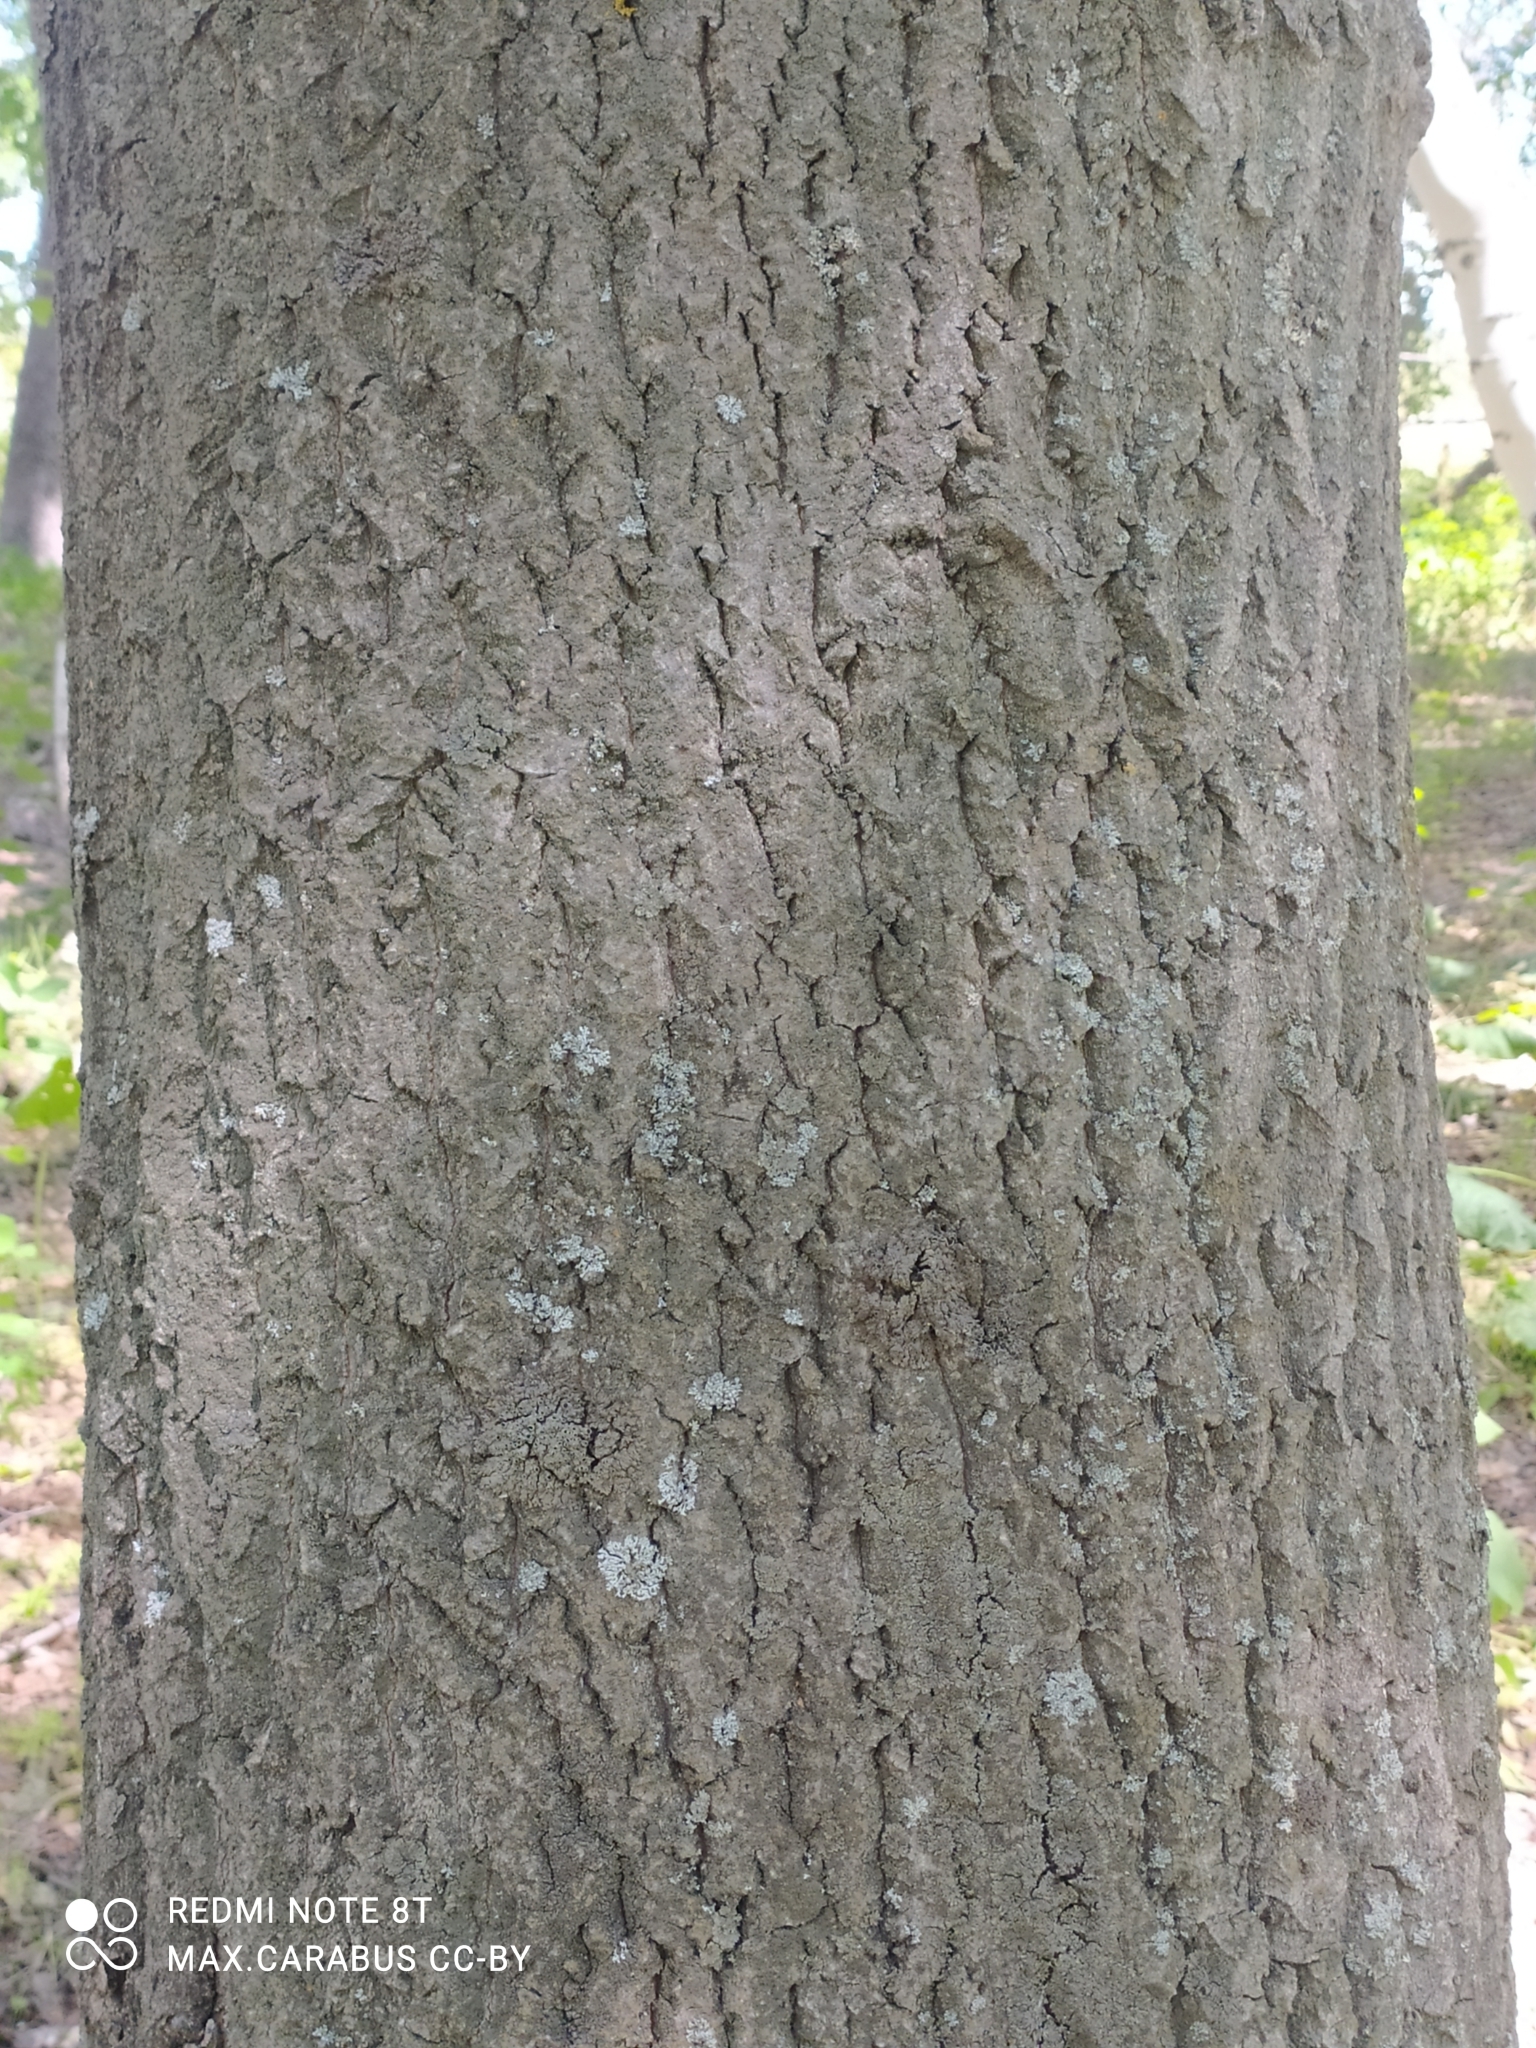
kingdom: Plantae
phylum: Tracheophyta
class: Magnoliopsida
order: Malpighiales
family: Salicaceae
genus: Populus
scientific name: Populus tremula
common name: European aspen
